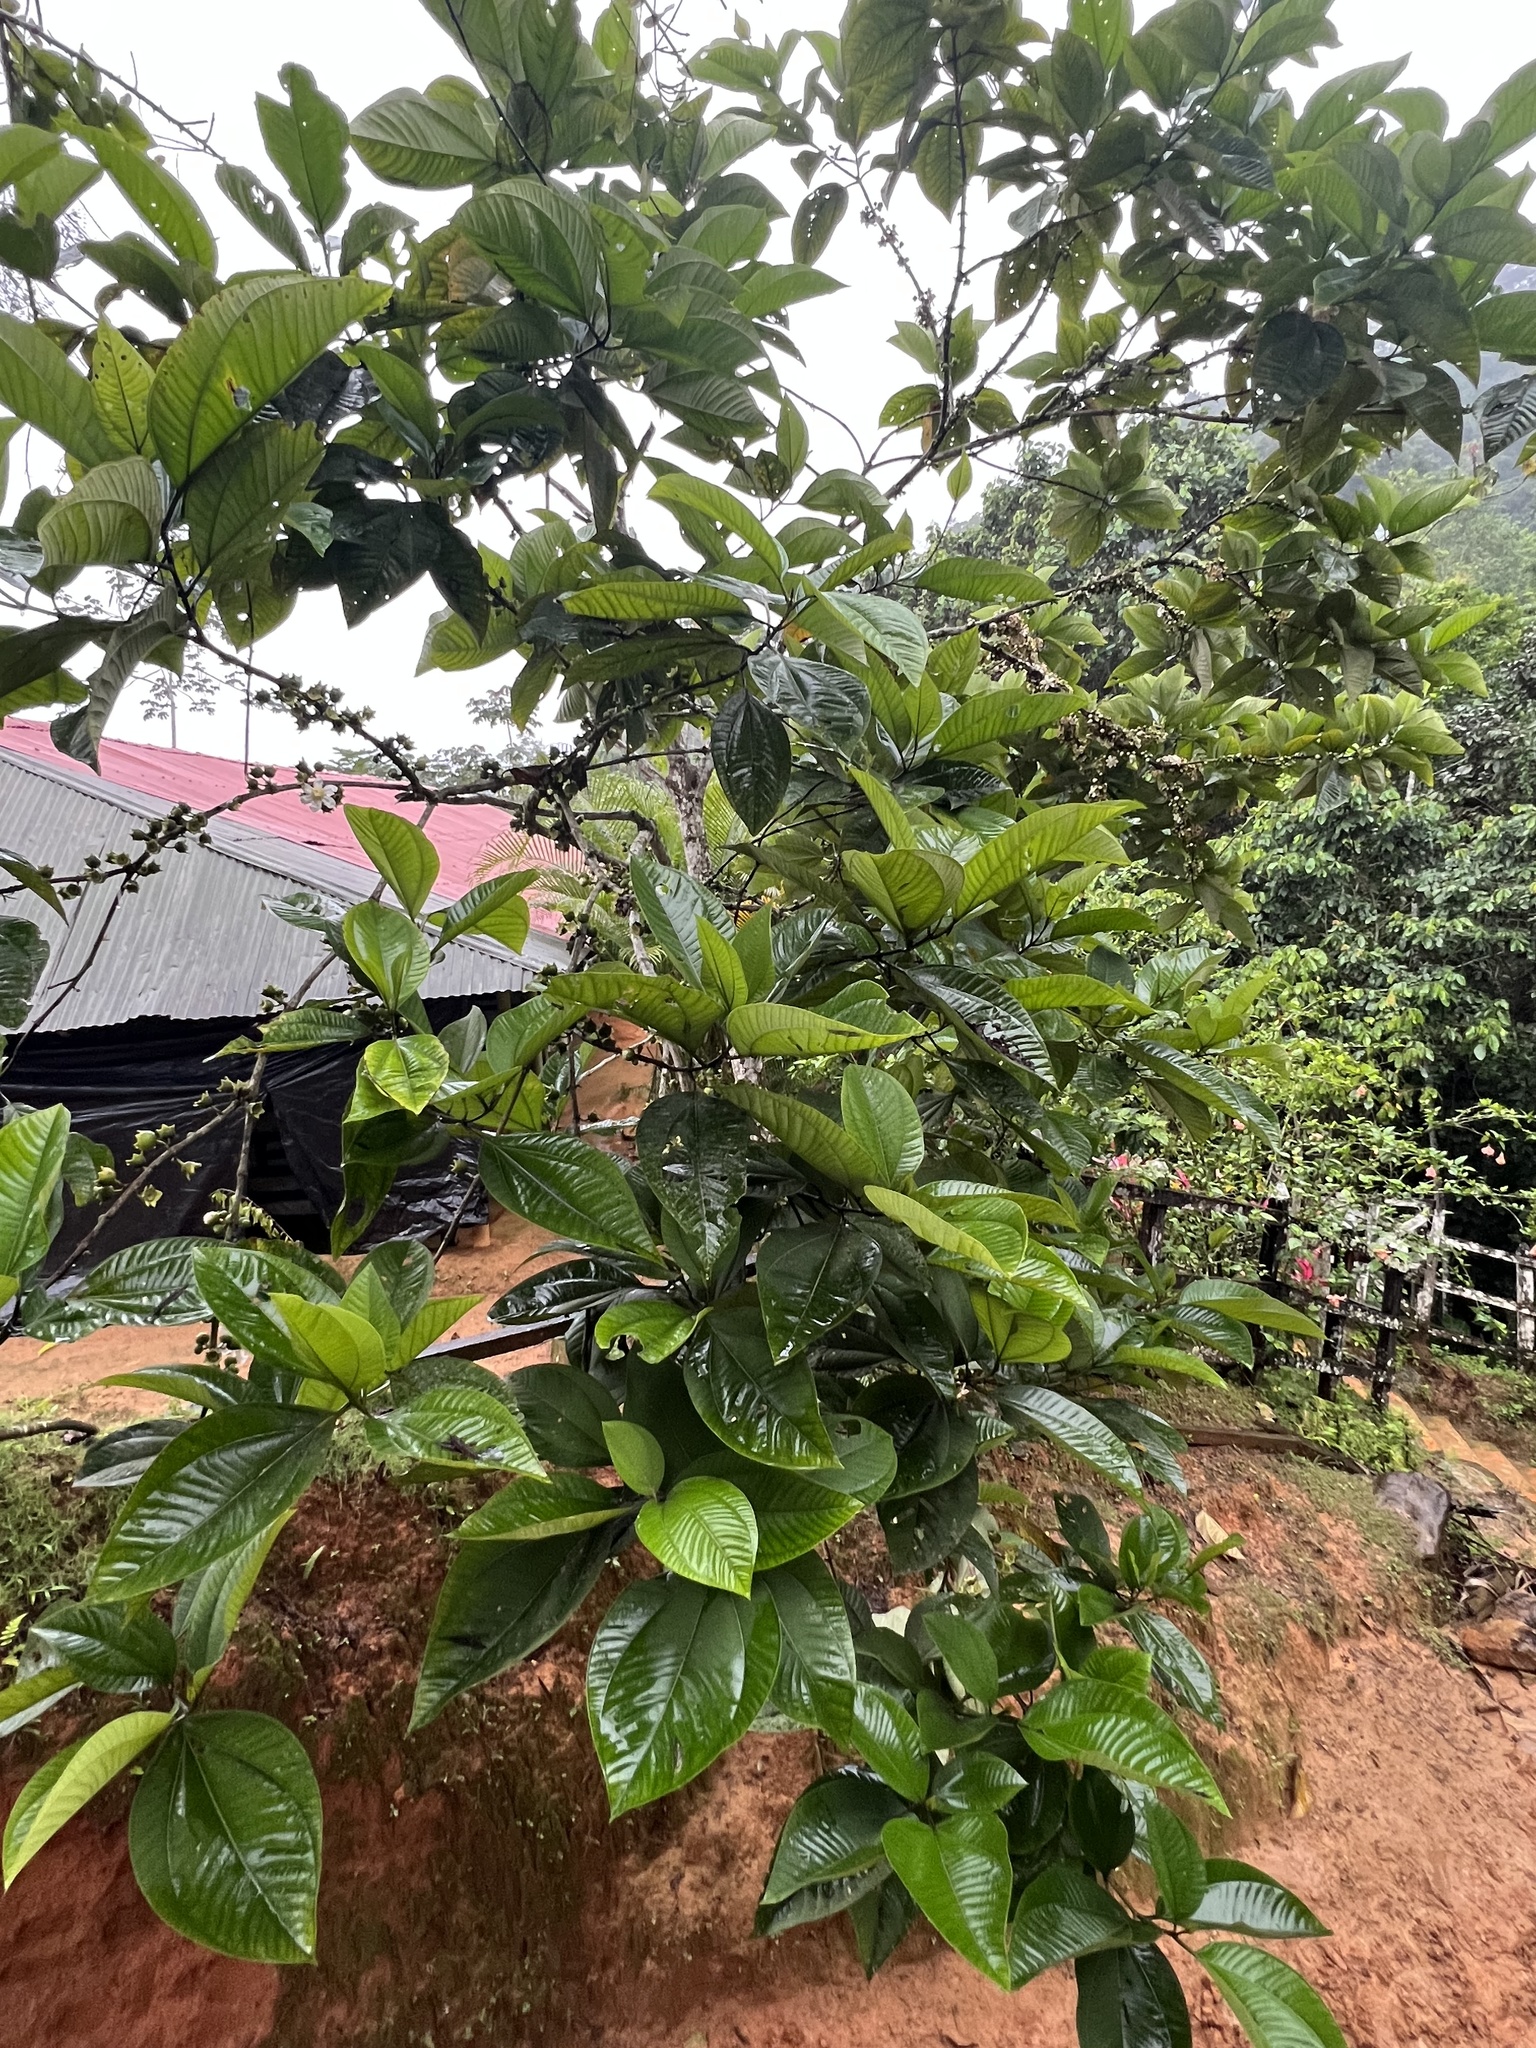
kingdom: Plantae
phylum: Tracheophyta
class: Magnoliopsida
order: Myrtales
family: Melastomataceae
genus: Bellucia
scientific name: Bellucia pentamera
